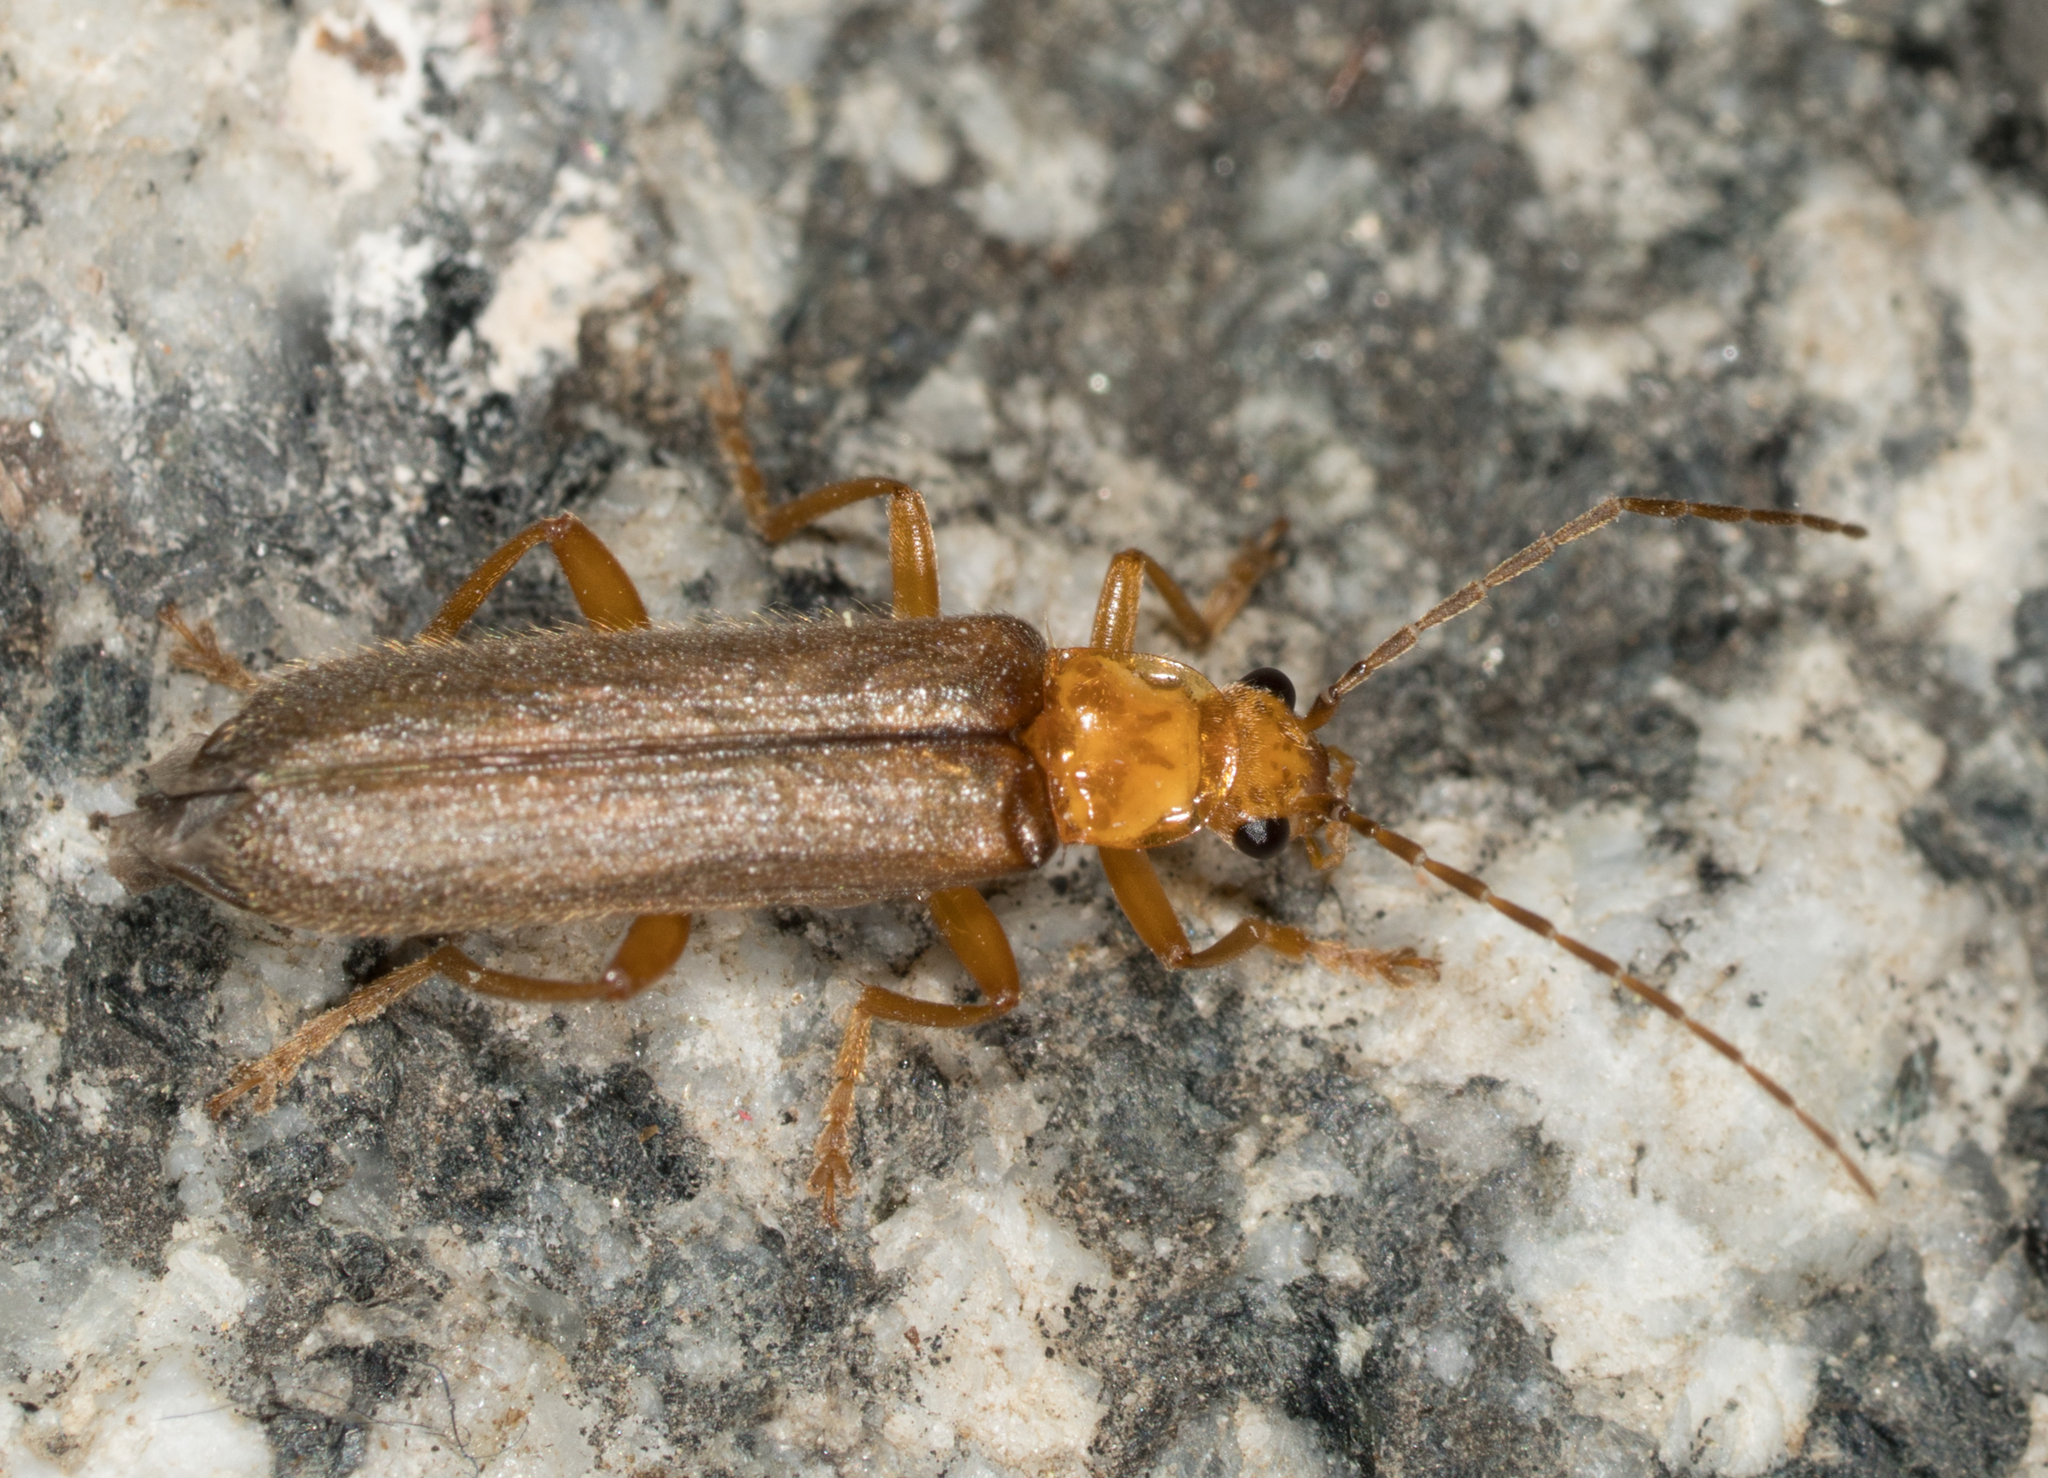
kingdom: Animalia
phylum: Arthropoda
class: Insecta
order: Coleoptera
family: Cantharidae
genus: Cultellunguis
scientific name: Cultellunguis perpallens
